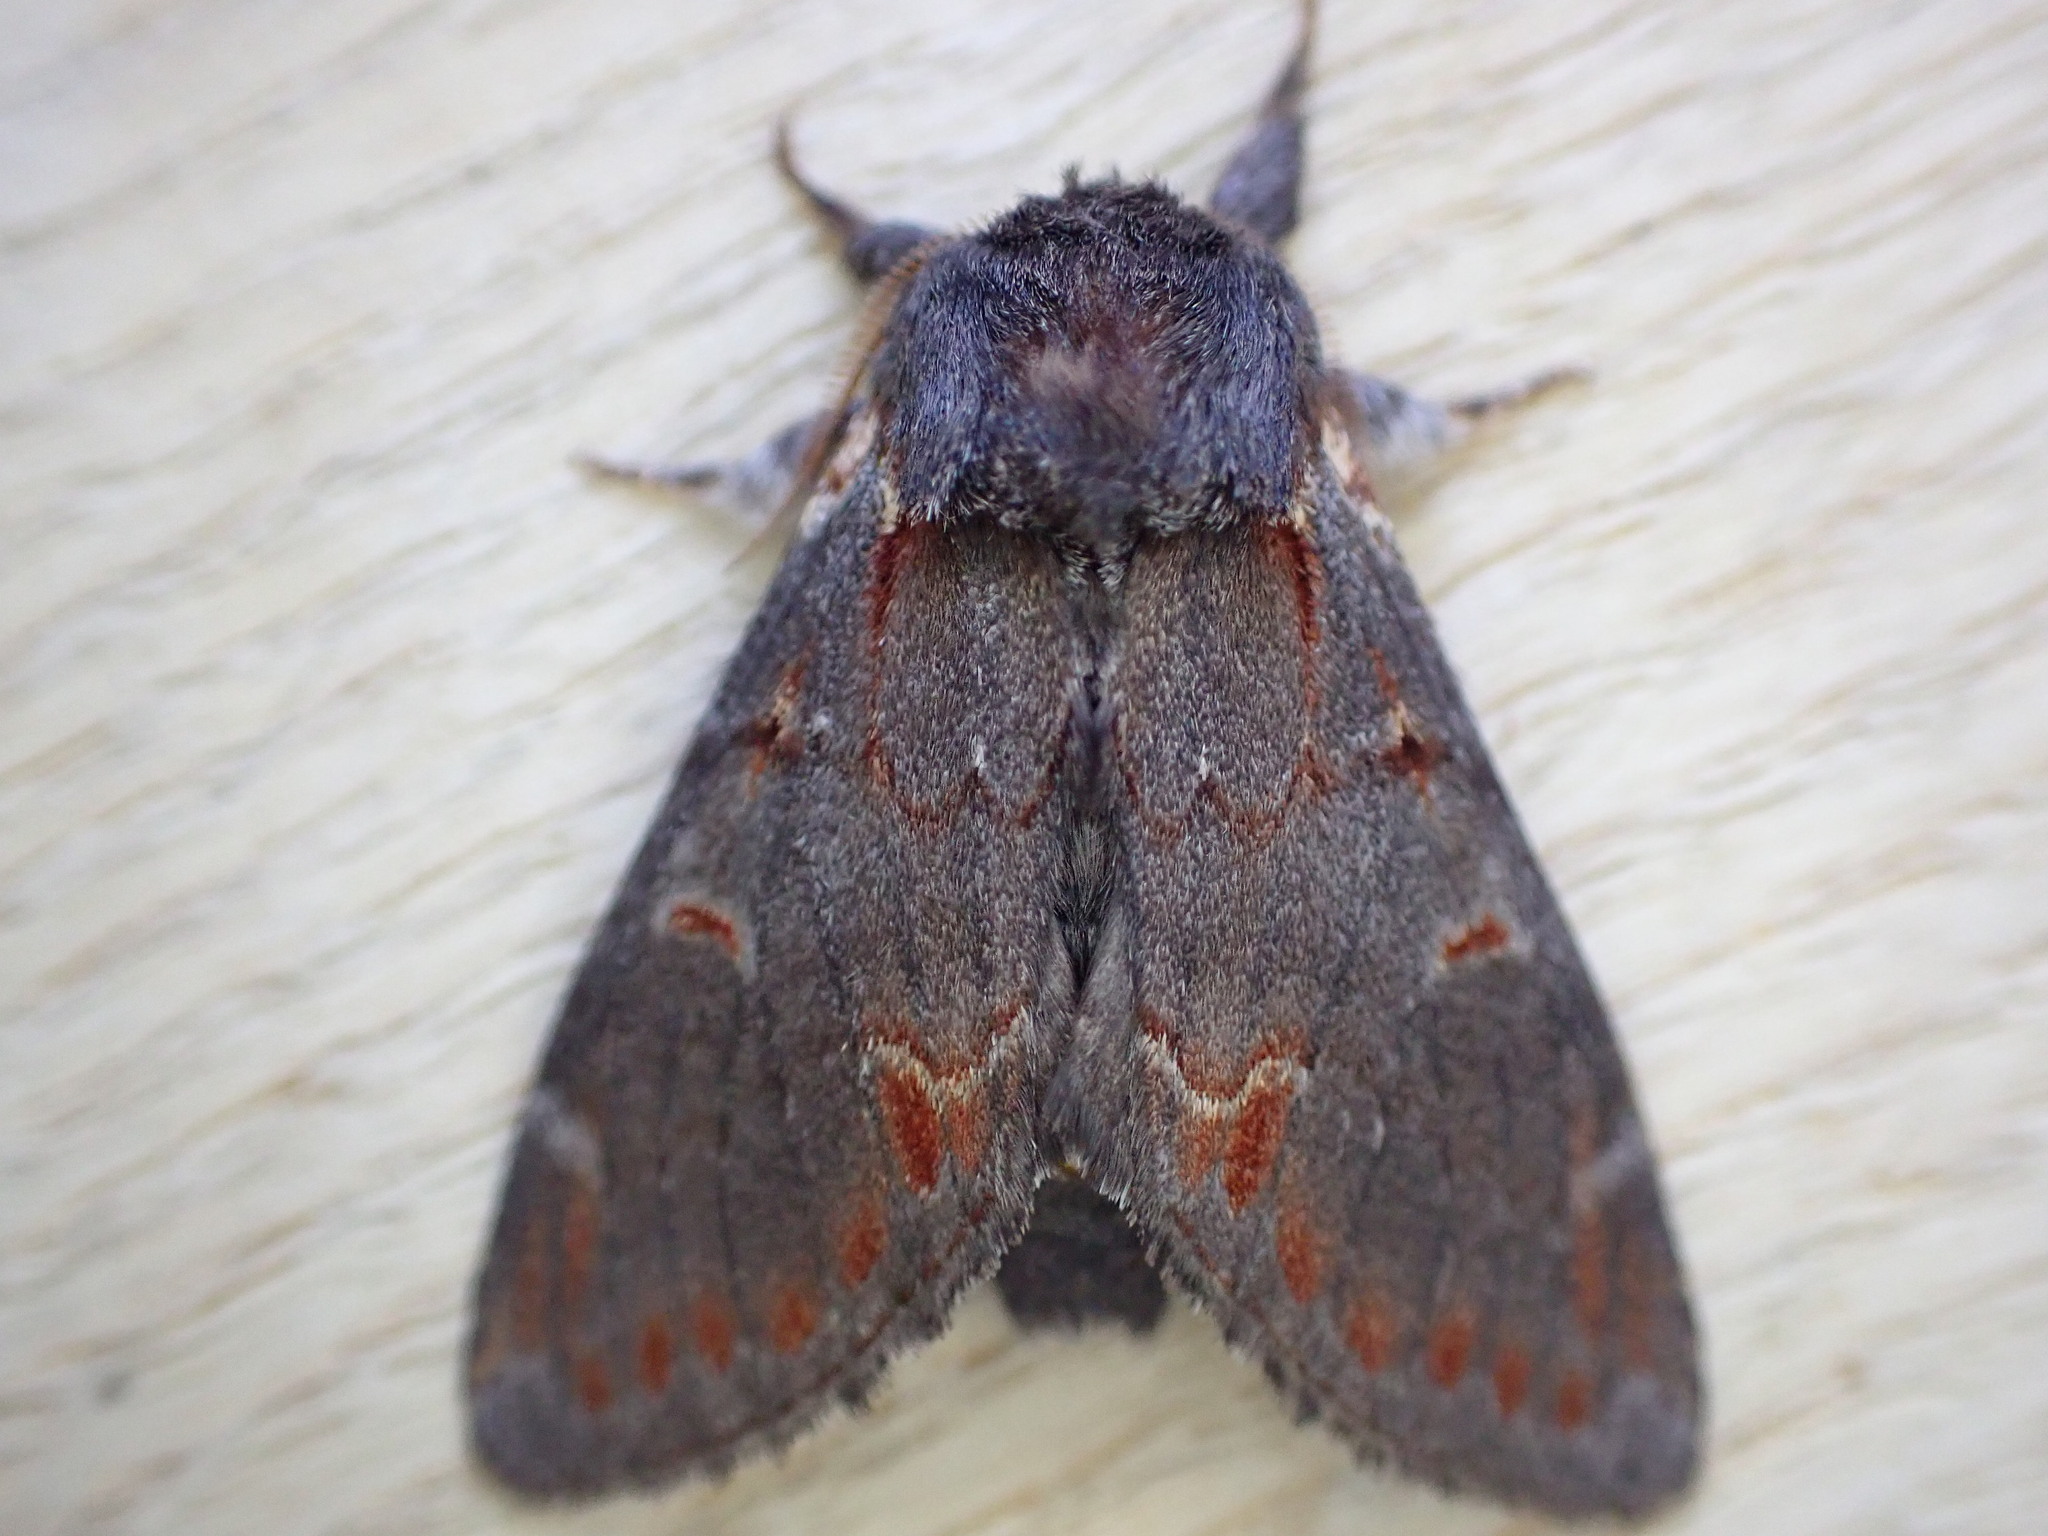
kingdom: Animalia
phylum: Arthropoda
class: Insecta
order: Lepidoptera
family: Notodontidae
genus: Notodonta
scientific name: Notodonta dromedarius
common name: Iron prominent
